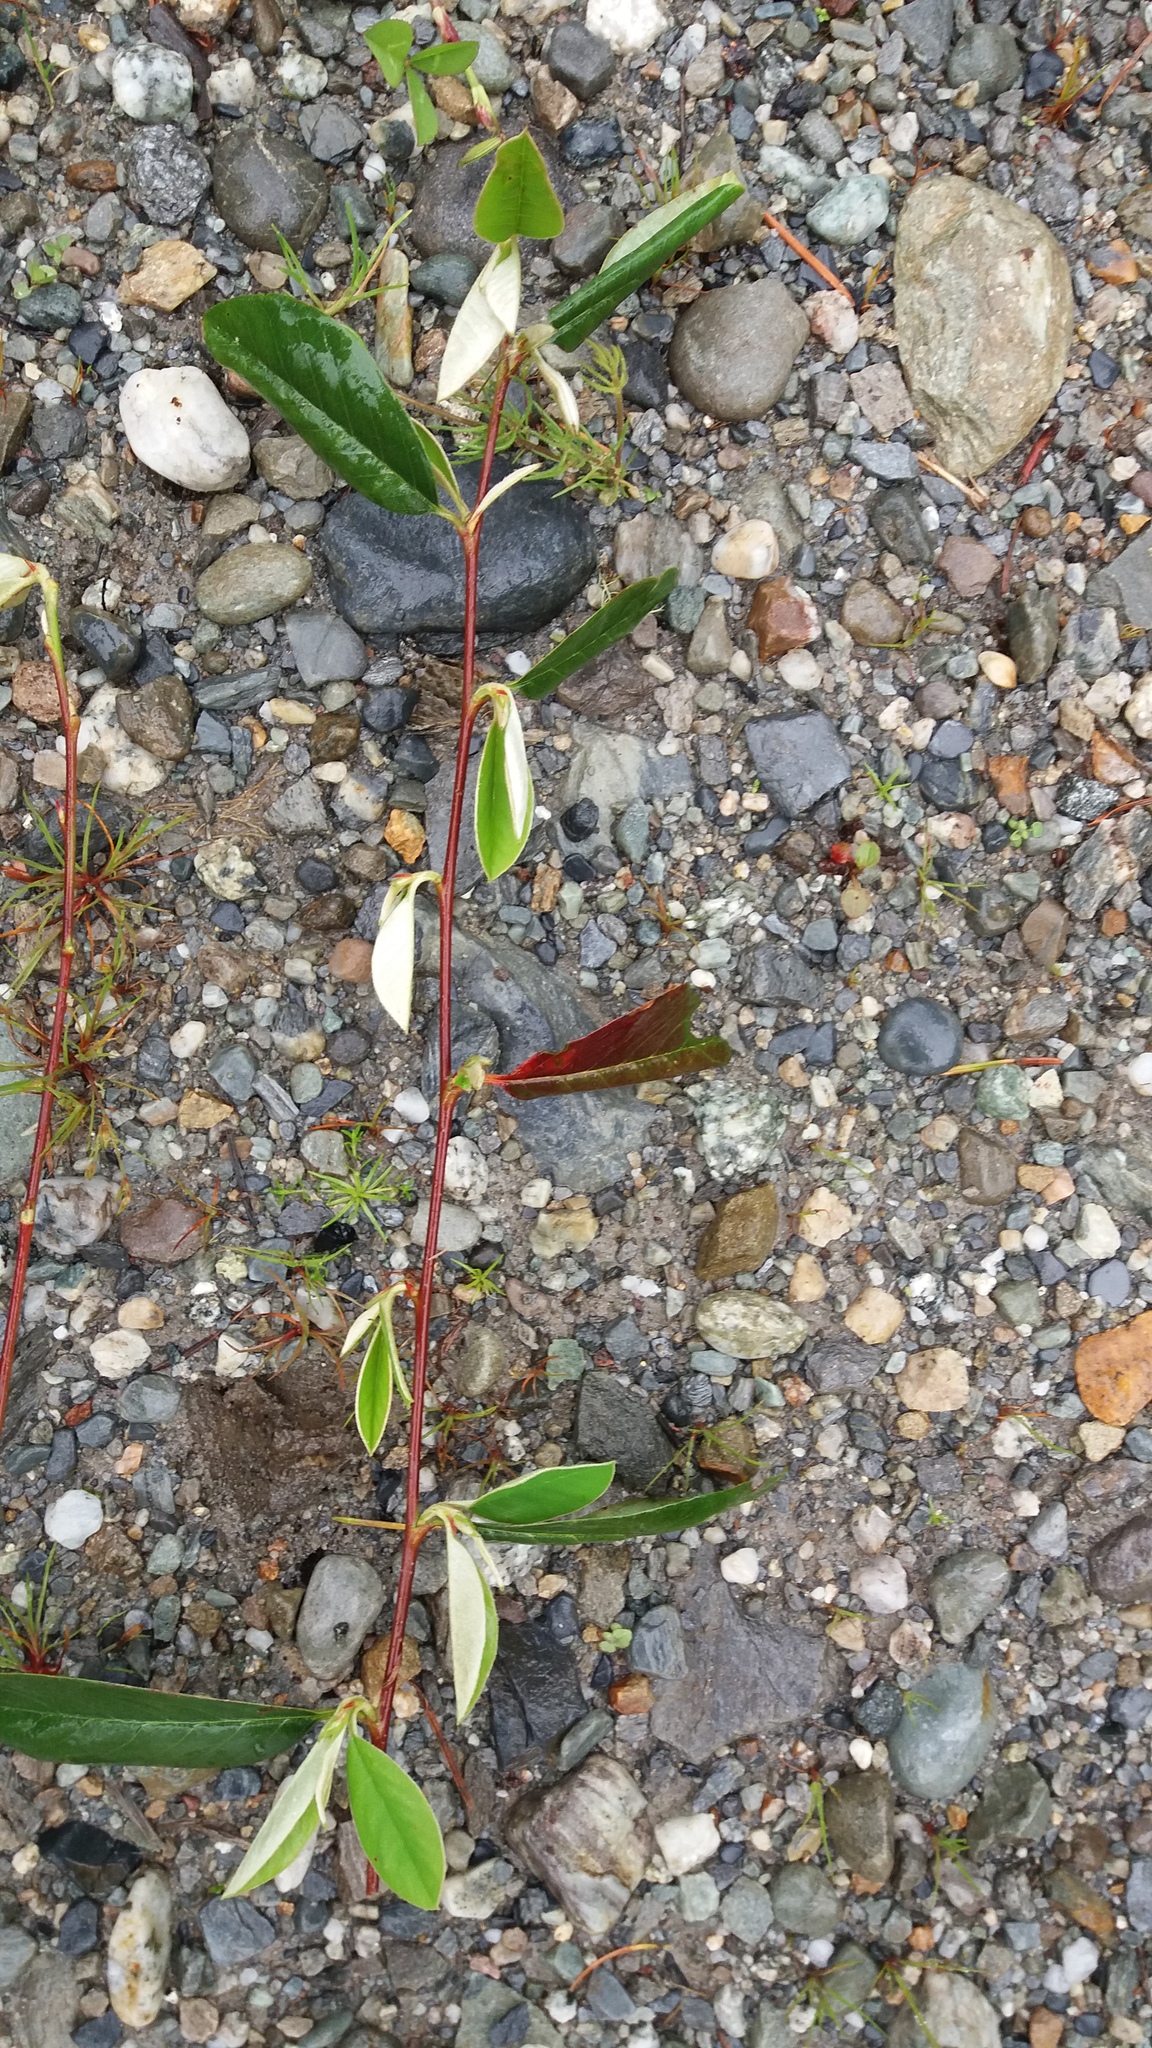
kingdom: Plantae
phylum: Tracheophyta
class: Magnoliopsida
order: Rosales
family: Rosaceae
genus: Cotoneaster
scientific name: Cotoneaster glaucophyllus
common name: Glaucous cotoneaster
